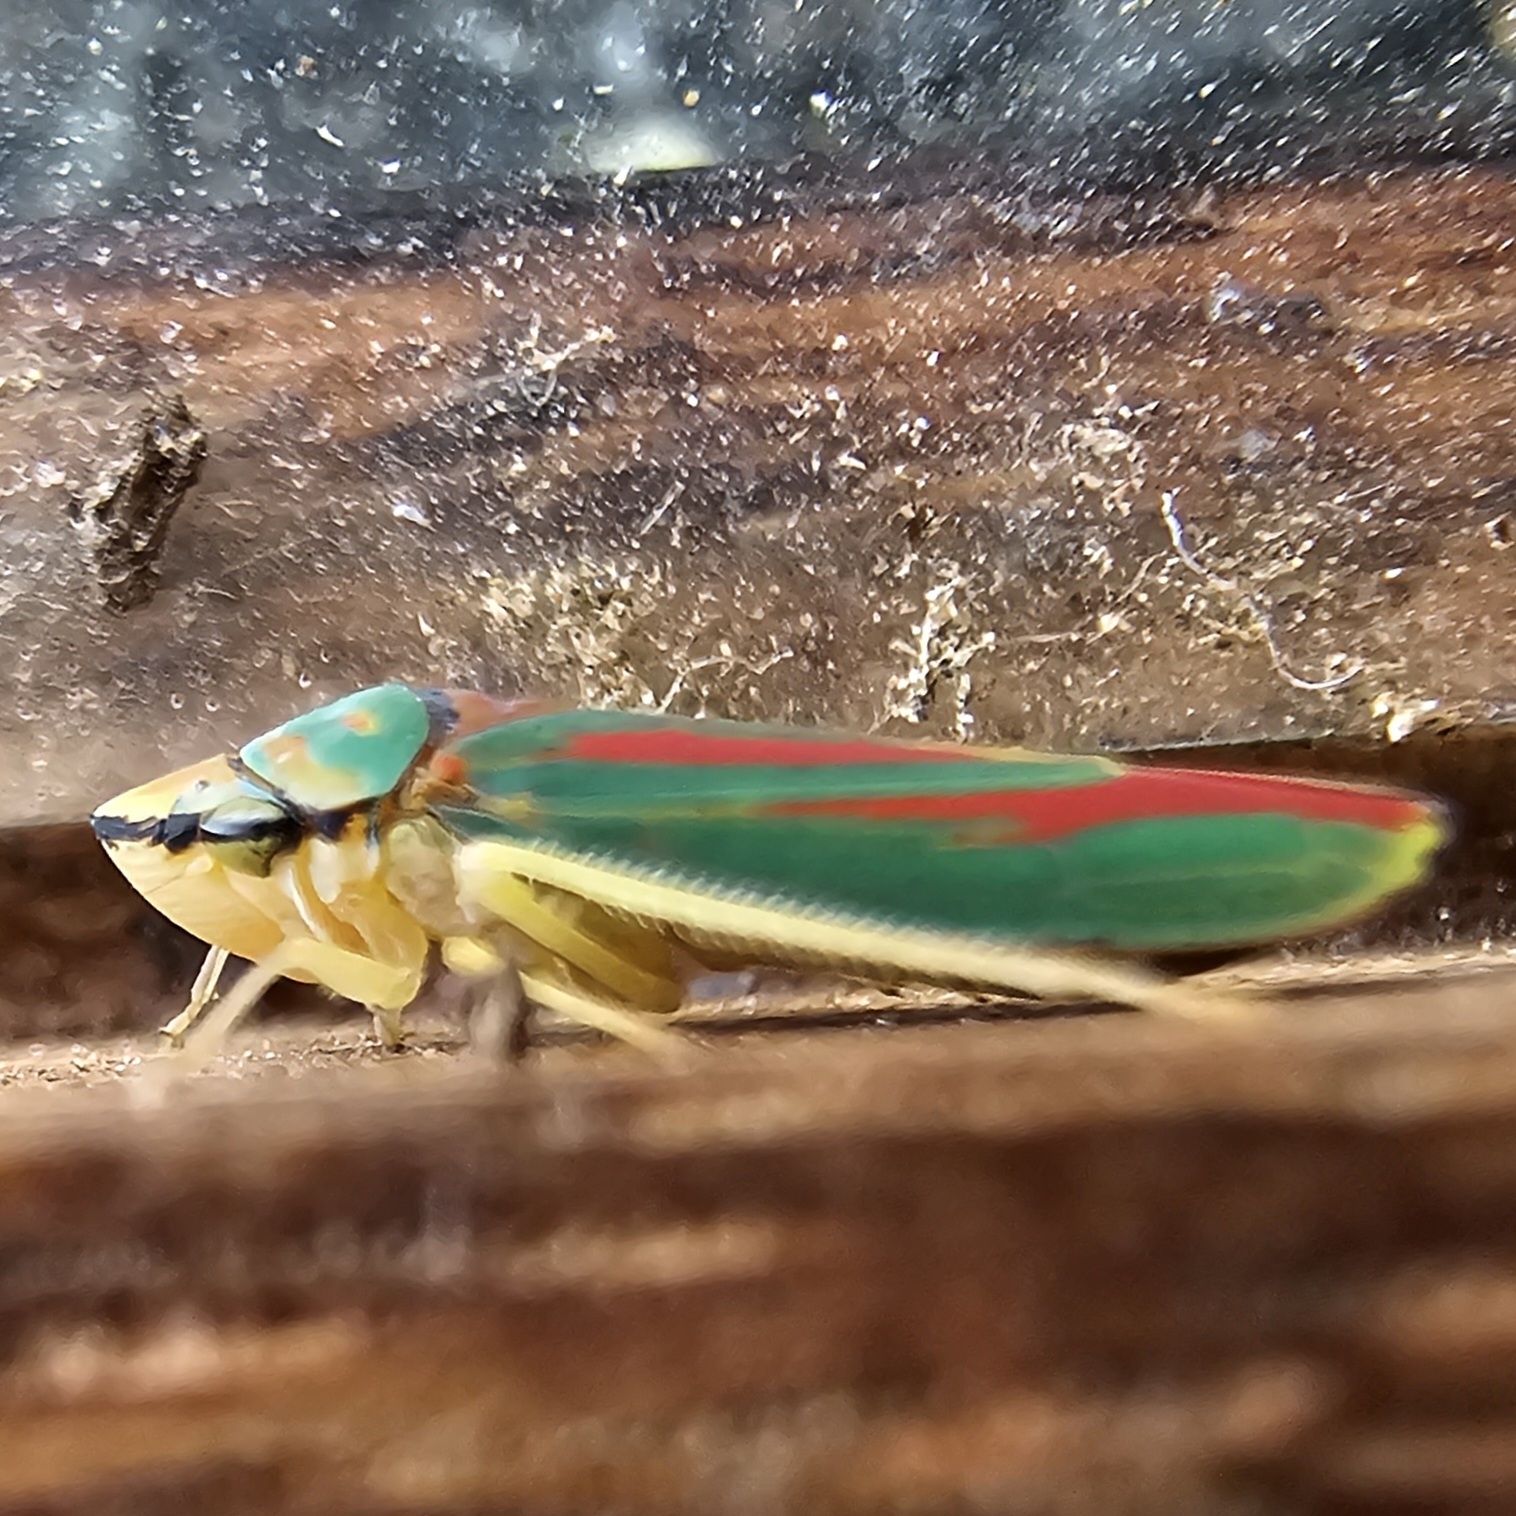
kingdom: Animalia
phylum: Arthropoda
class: Insecta
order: Hemiptera
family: Cicadellidae
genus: Graphocephala
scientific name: Graphocephala fennahi
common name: Rhododendron leafhopper
